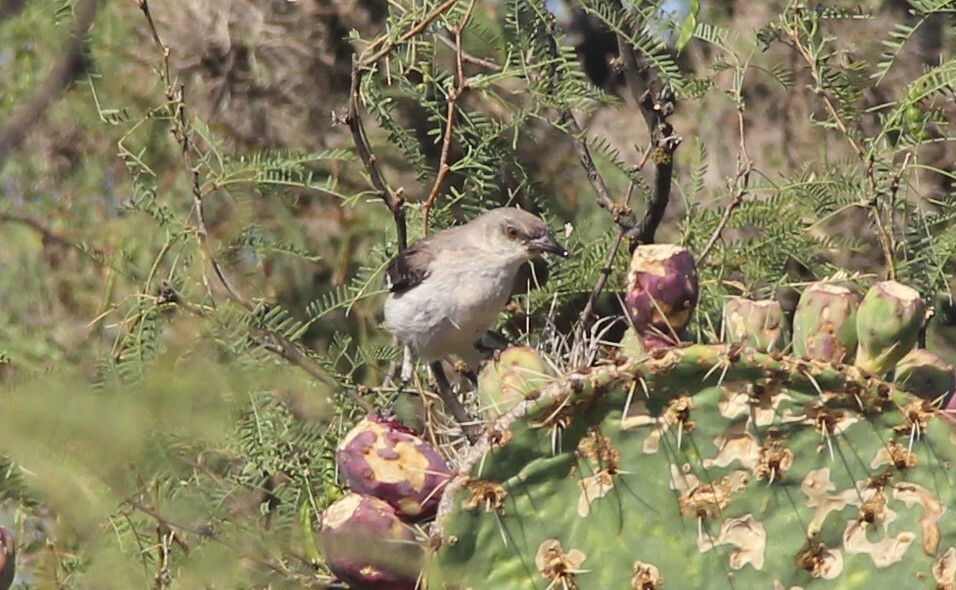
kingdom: Animalia
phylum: Chordata
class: Aves
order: Passeriformes
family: Mimidae
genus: Mimus
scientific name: Mimus polyglottos
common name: Northern mockingbird
